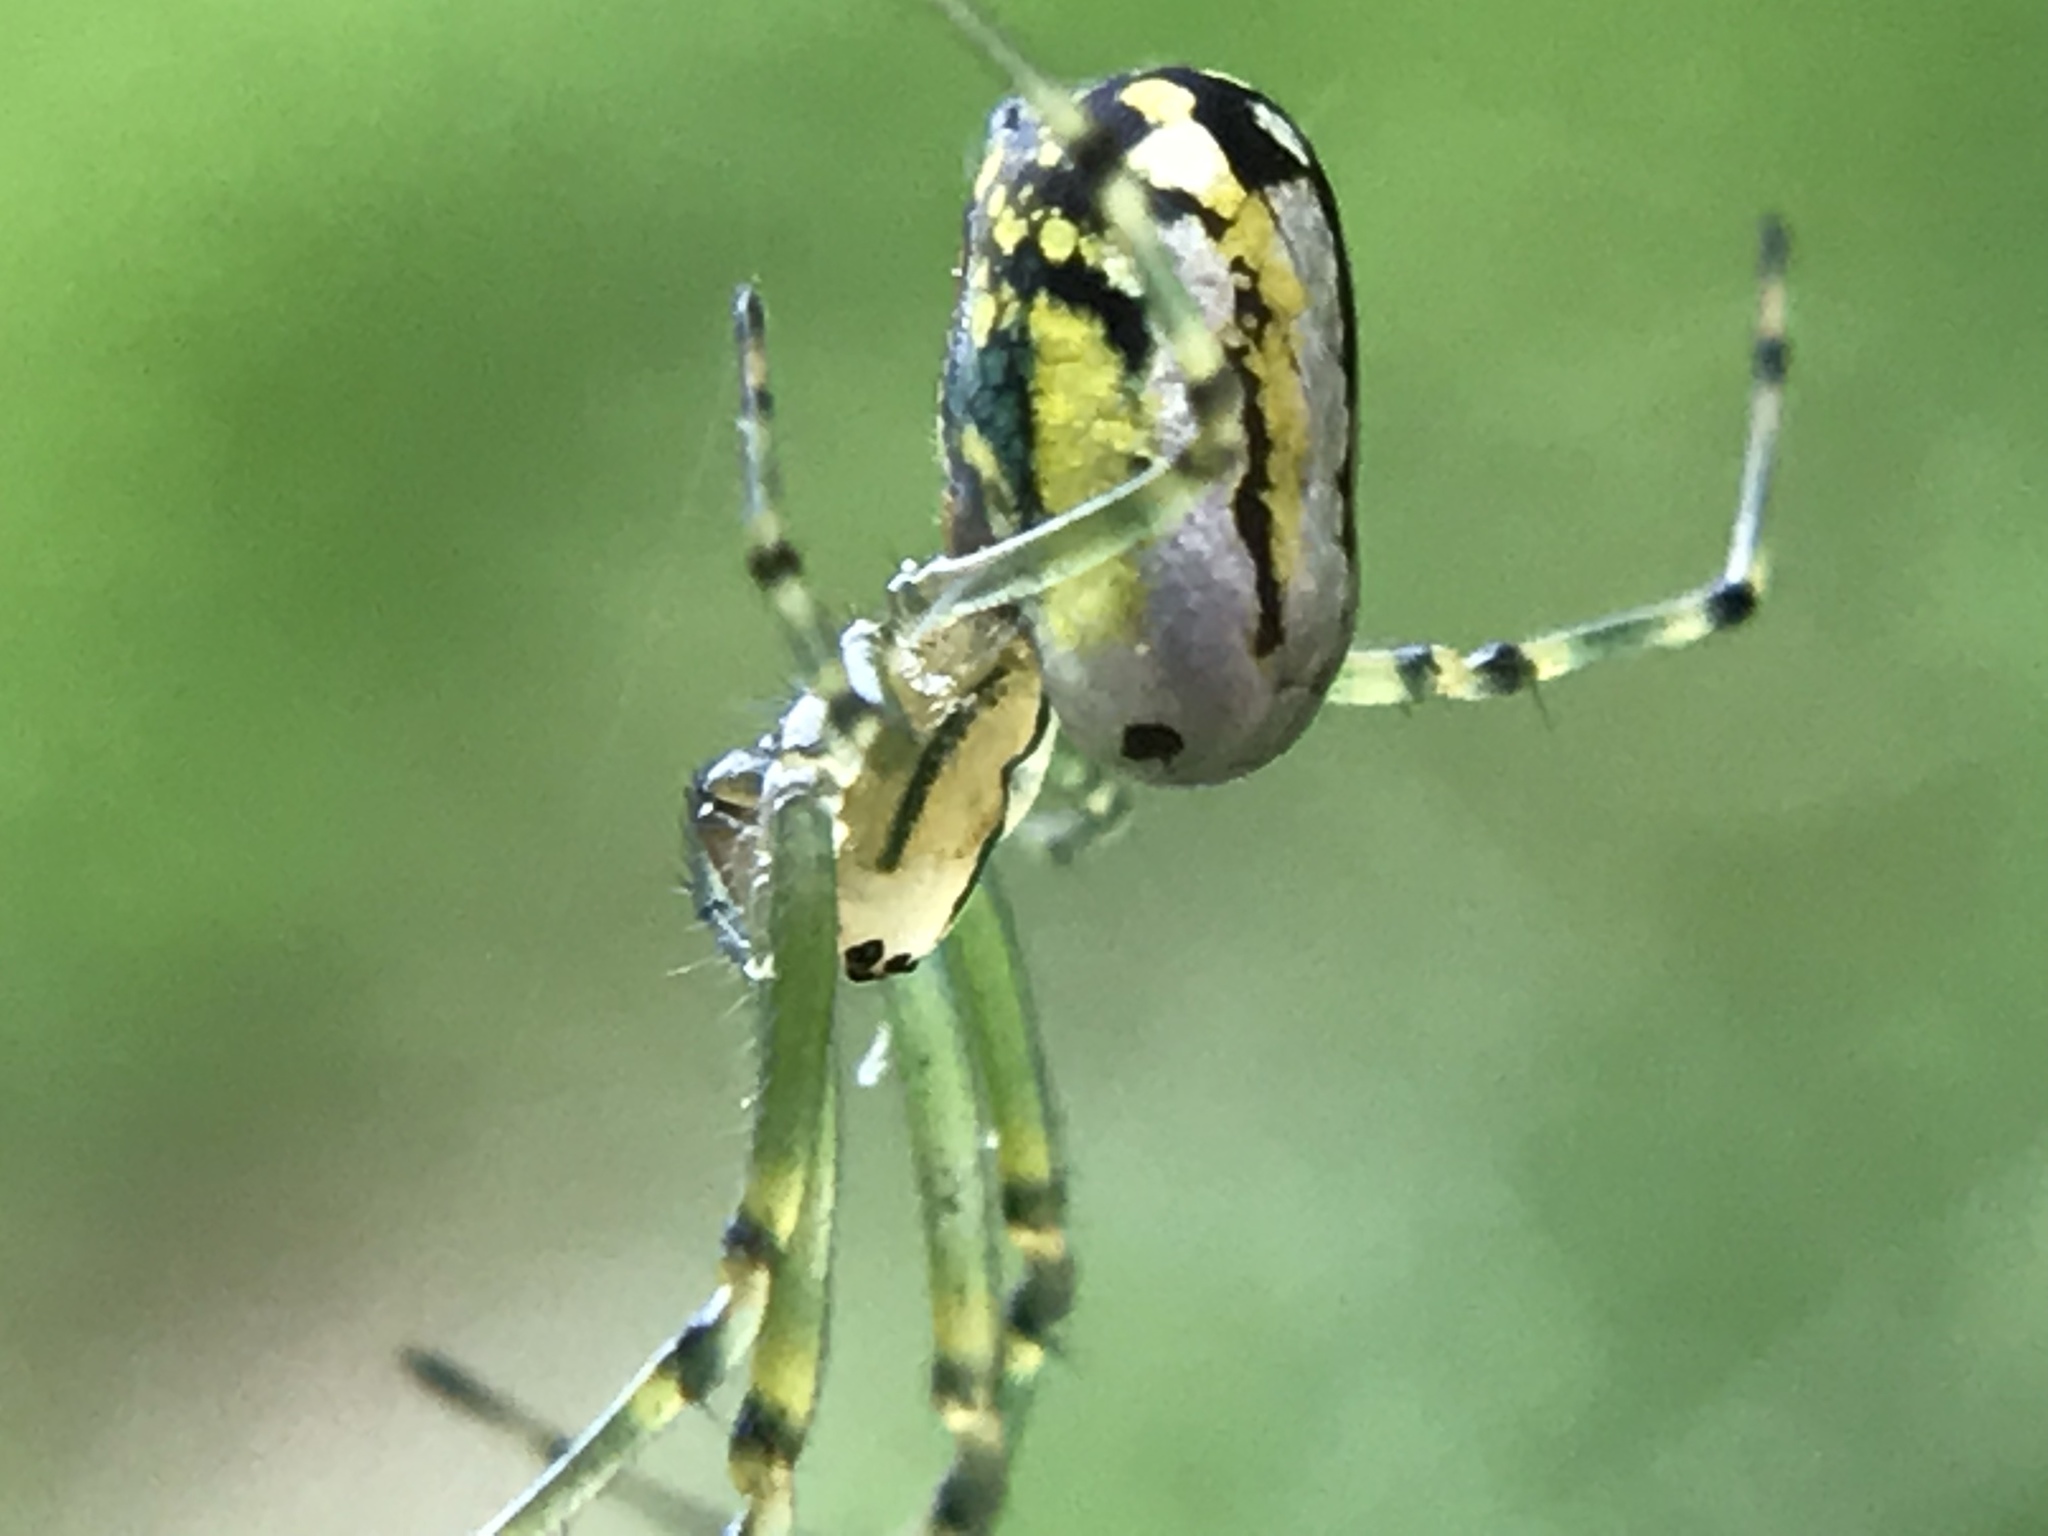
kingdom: Animalia
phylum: Arthropoda
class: Arachnida
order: Araneae
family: Tetragnathidae
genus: Leucauge
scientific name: Leucauge venusta
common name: Longjawed orb weavers
